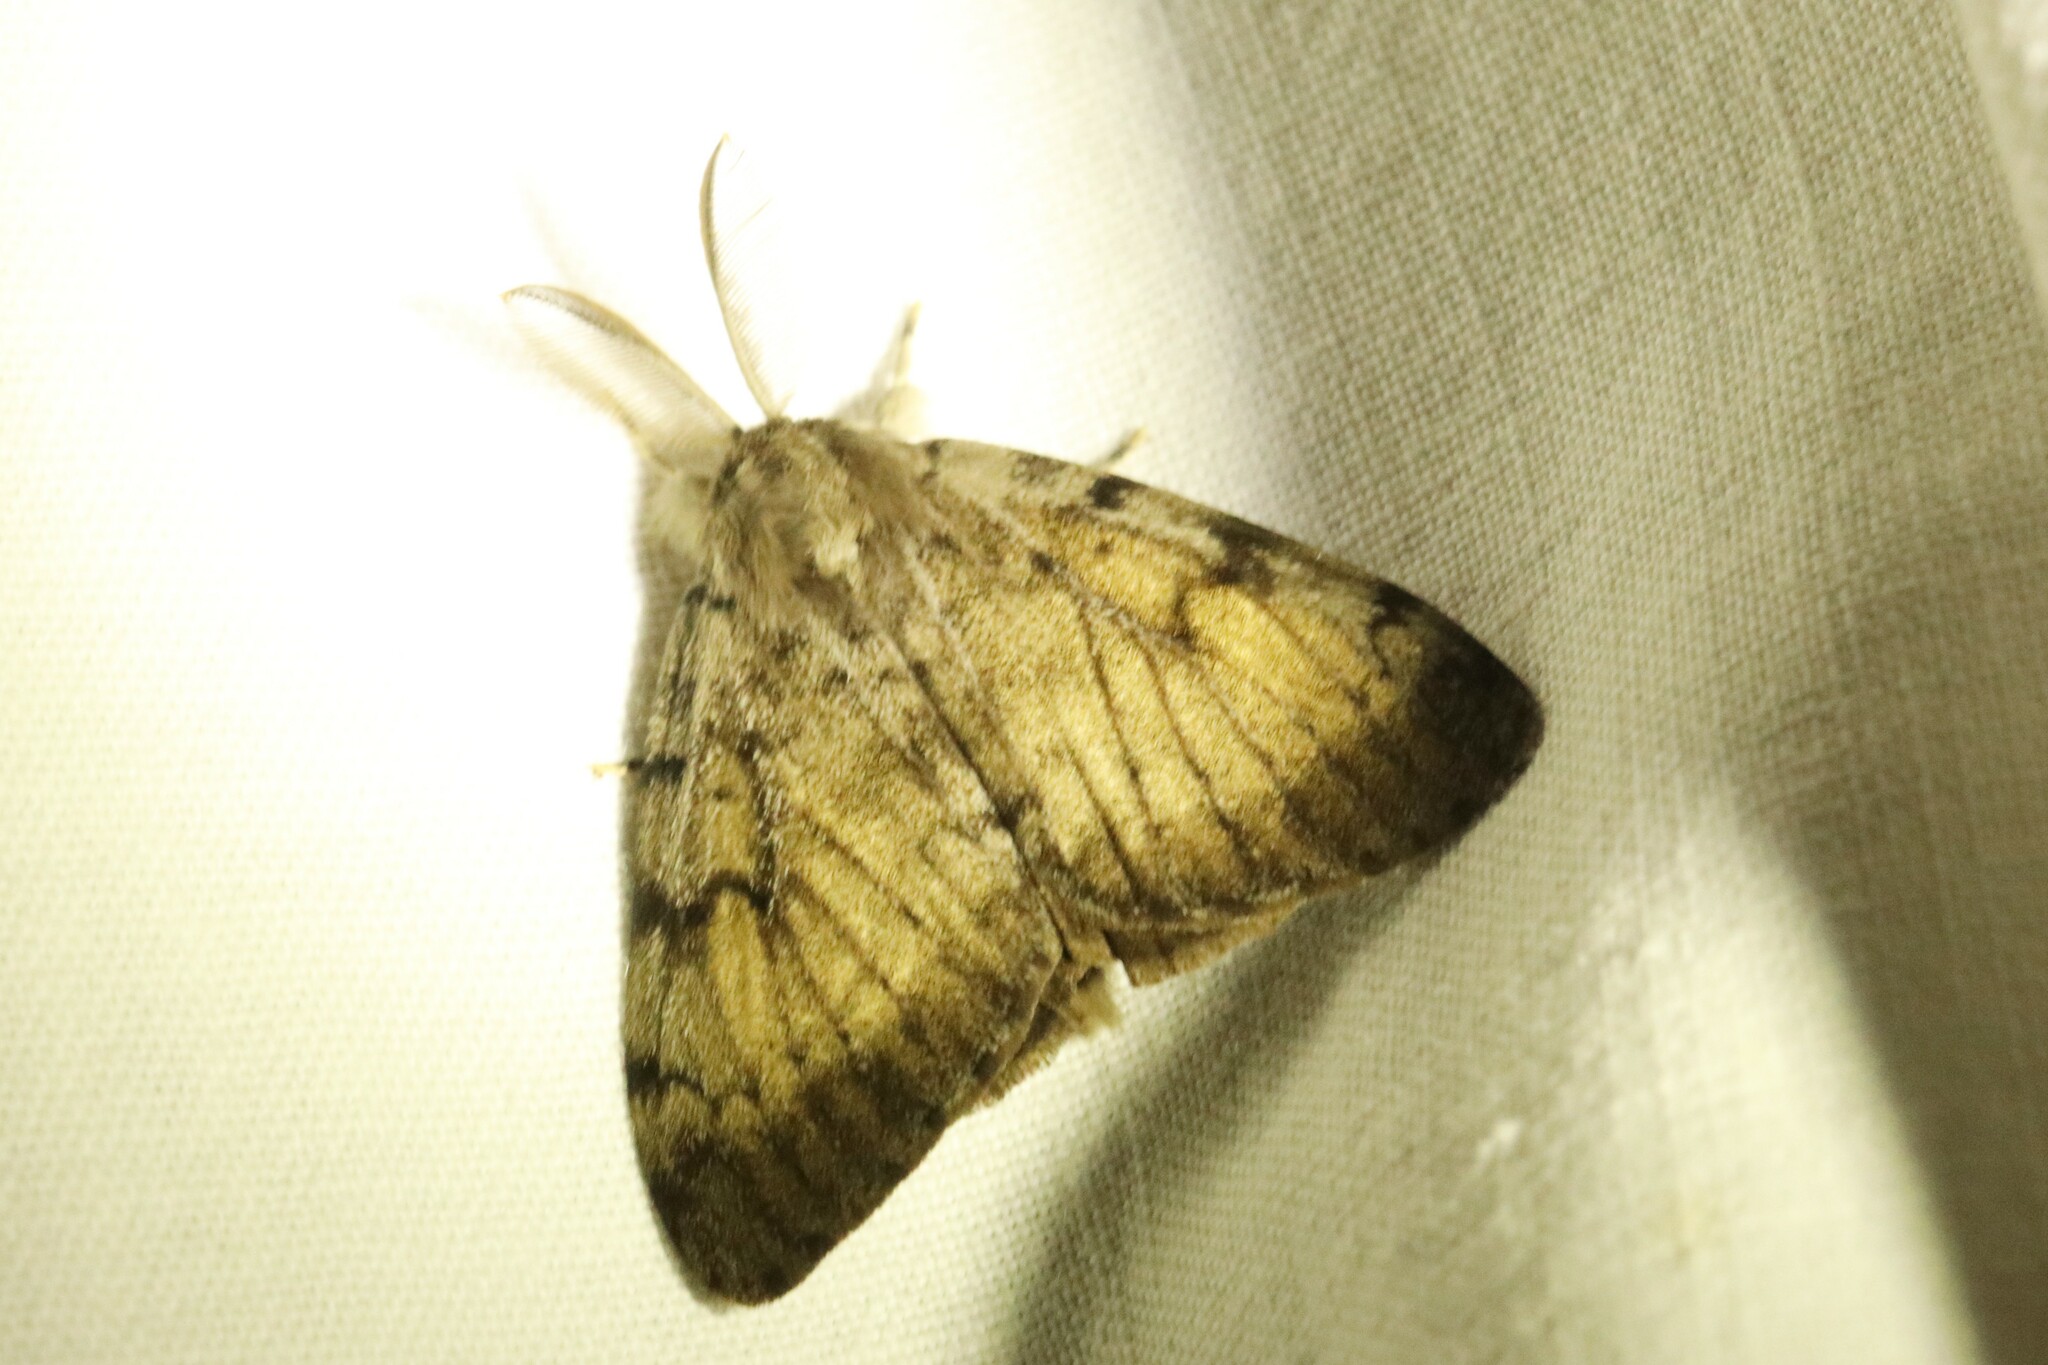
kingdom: Animalia
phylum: Arthropoda
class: Insecta
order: Lepidoptera
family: Erebidae
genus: Lymantria
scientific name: Lymantria dispar
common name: Gypsy moth
